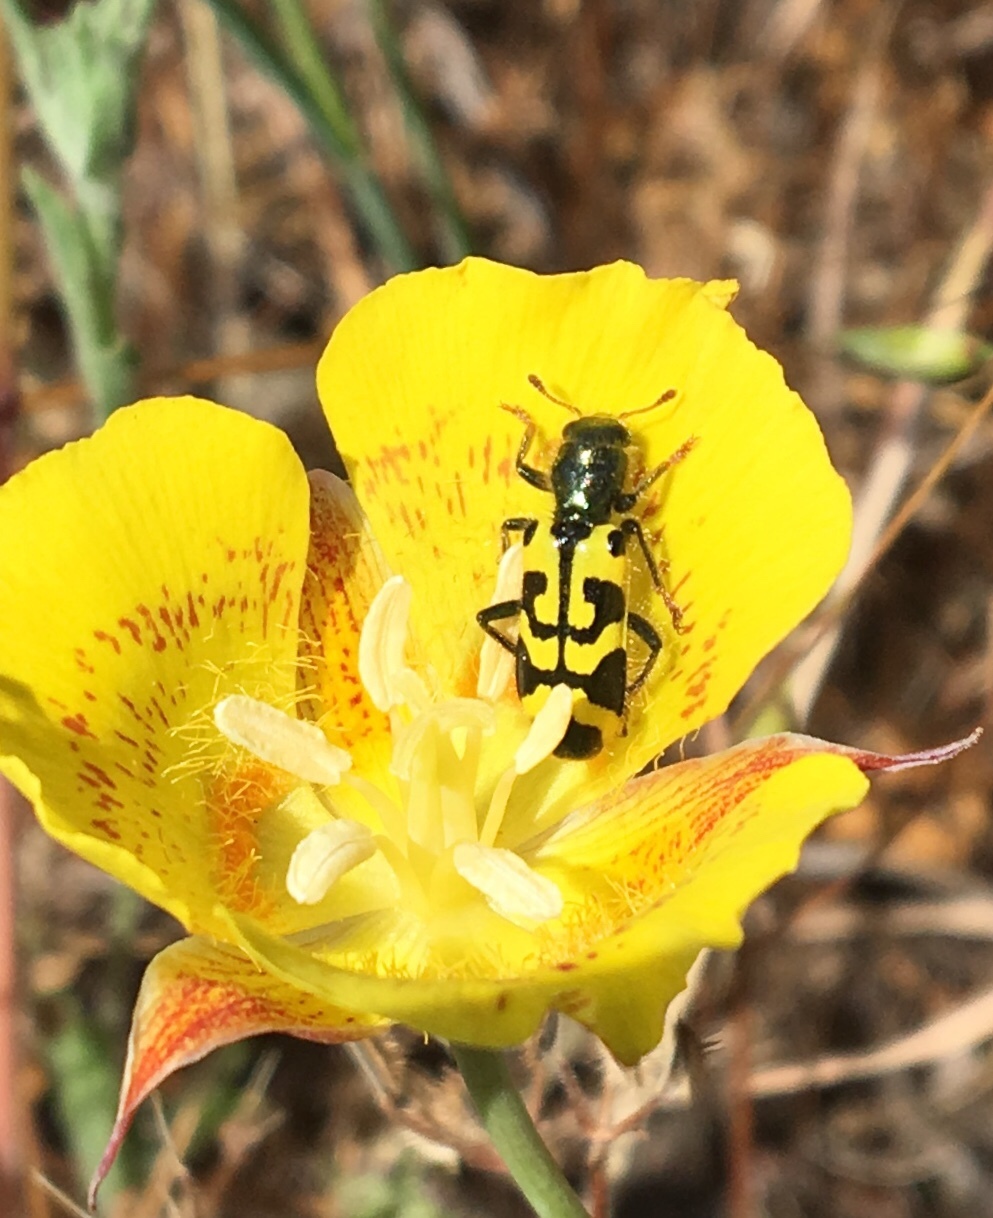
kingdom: Animalia
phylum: Arthropoda
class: Insecta
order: Coleoptera
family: Cleridae
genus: Trichodes
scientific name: Trichodes ornatus
